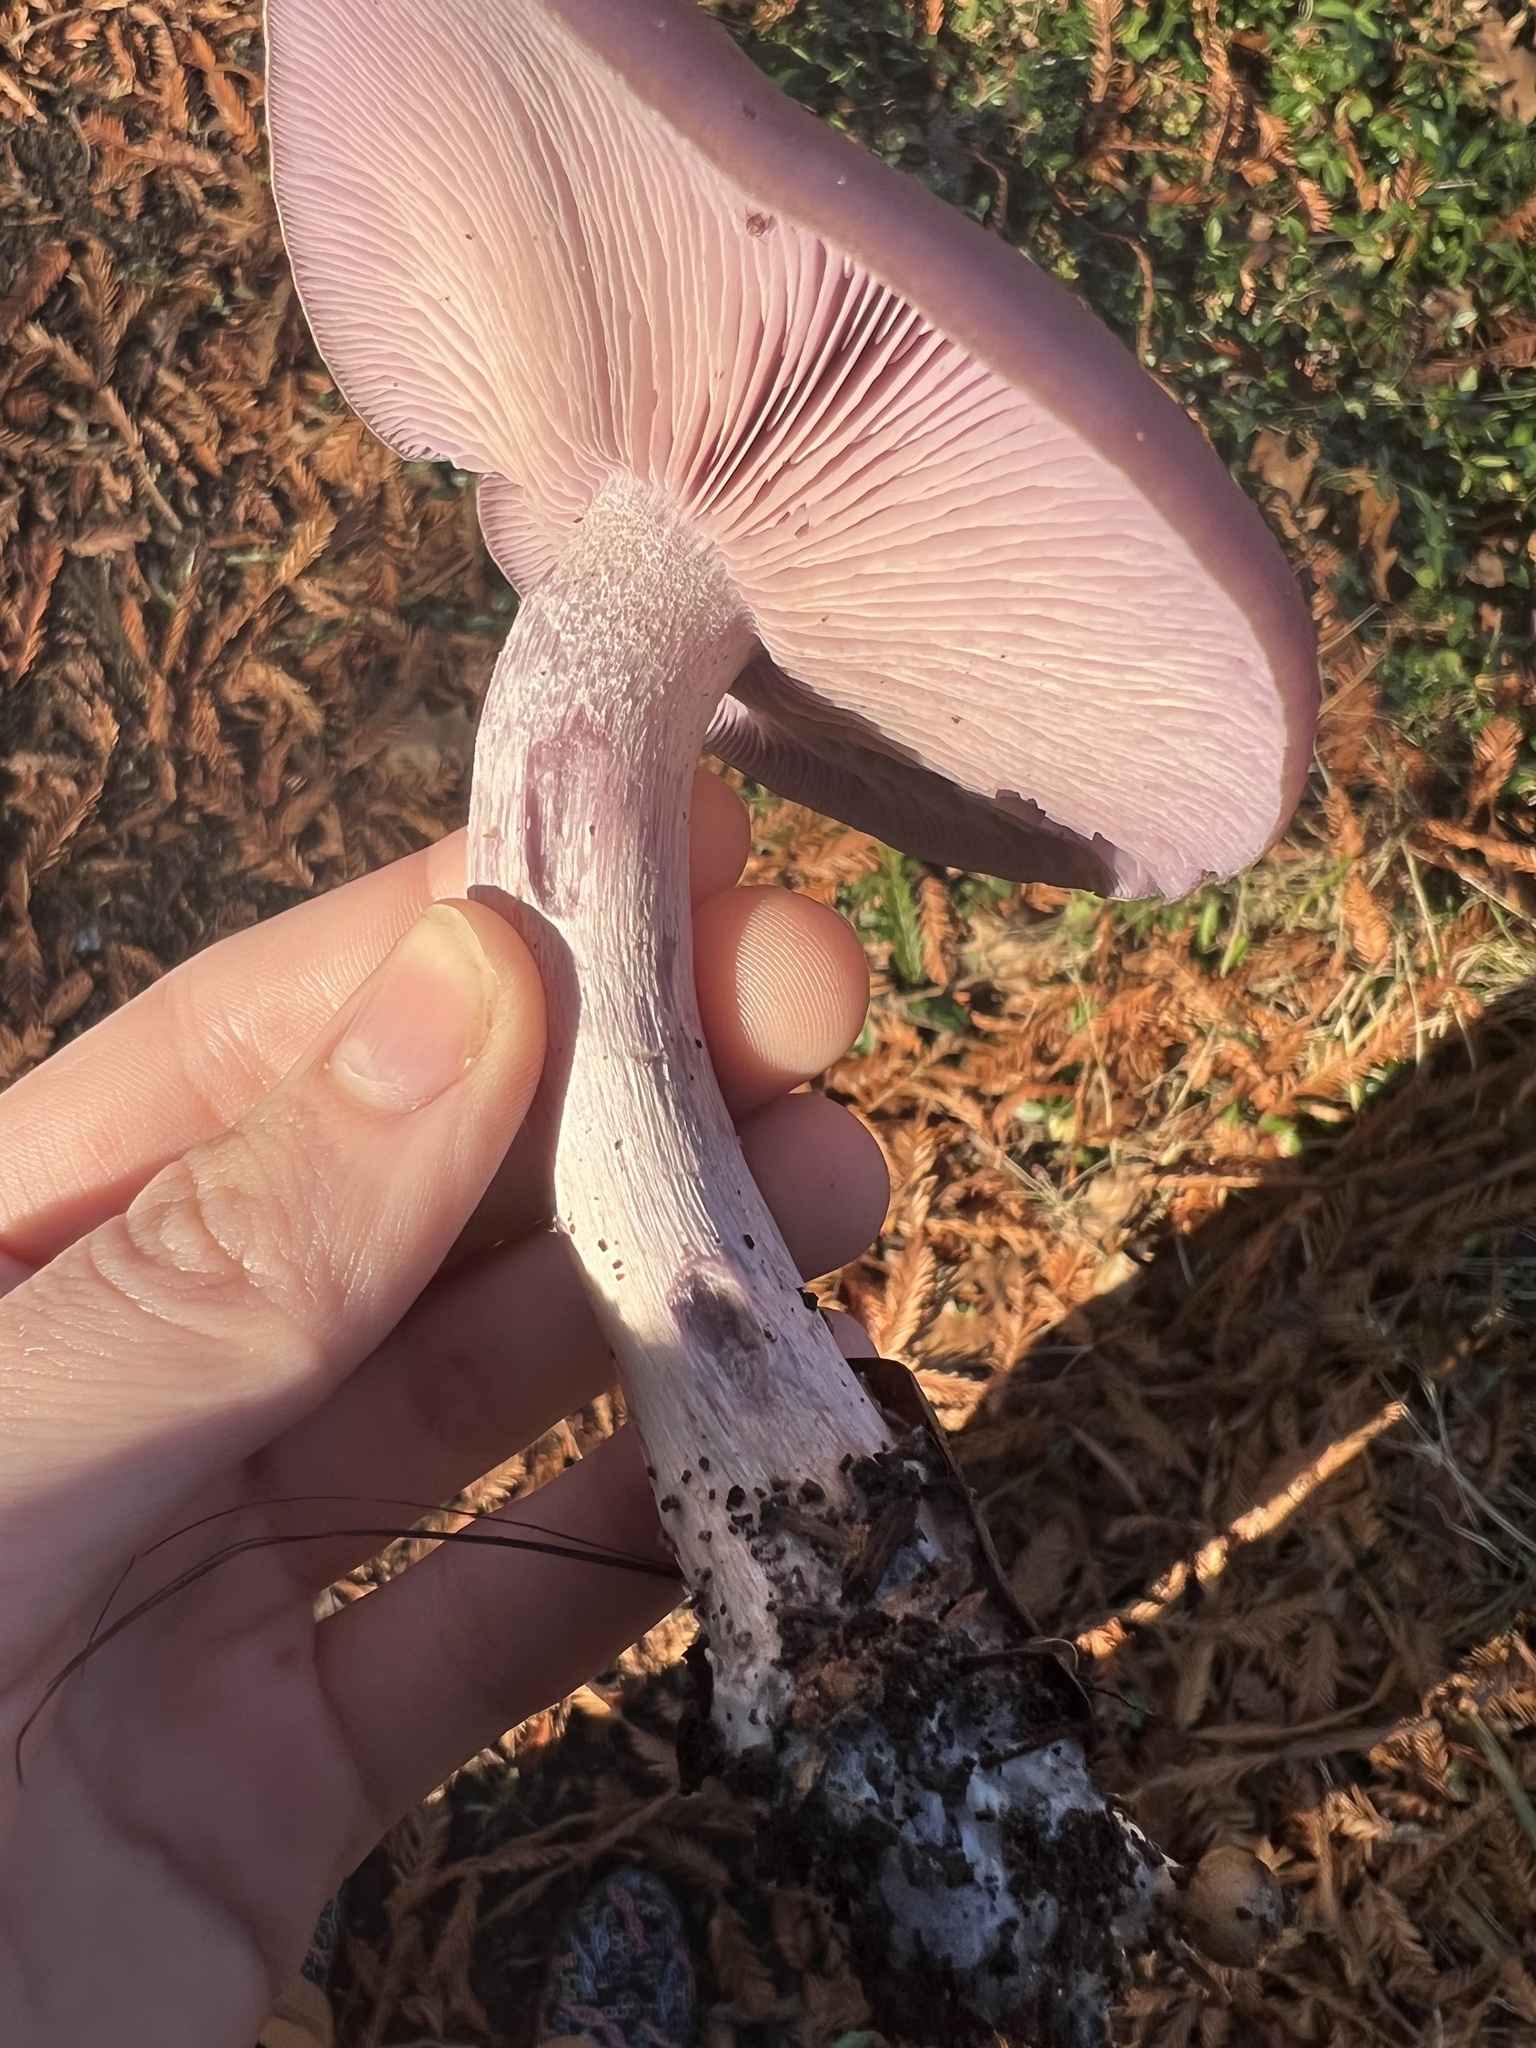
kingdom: Fungi
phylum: Basidiomycota
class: Agaricomycetes
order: Agaricales
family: Tricholomataceae
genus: Collybia
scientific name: Collybia
